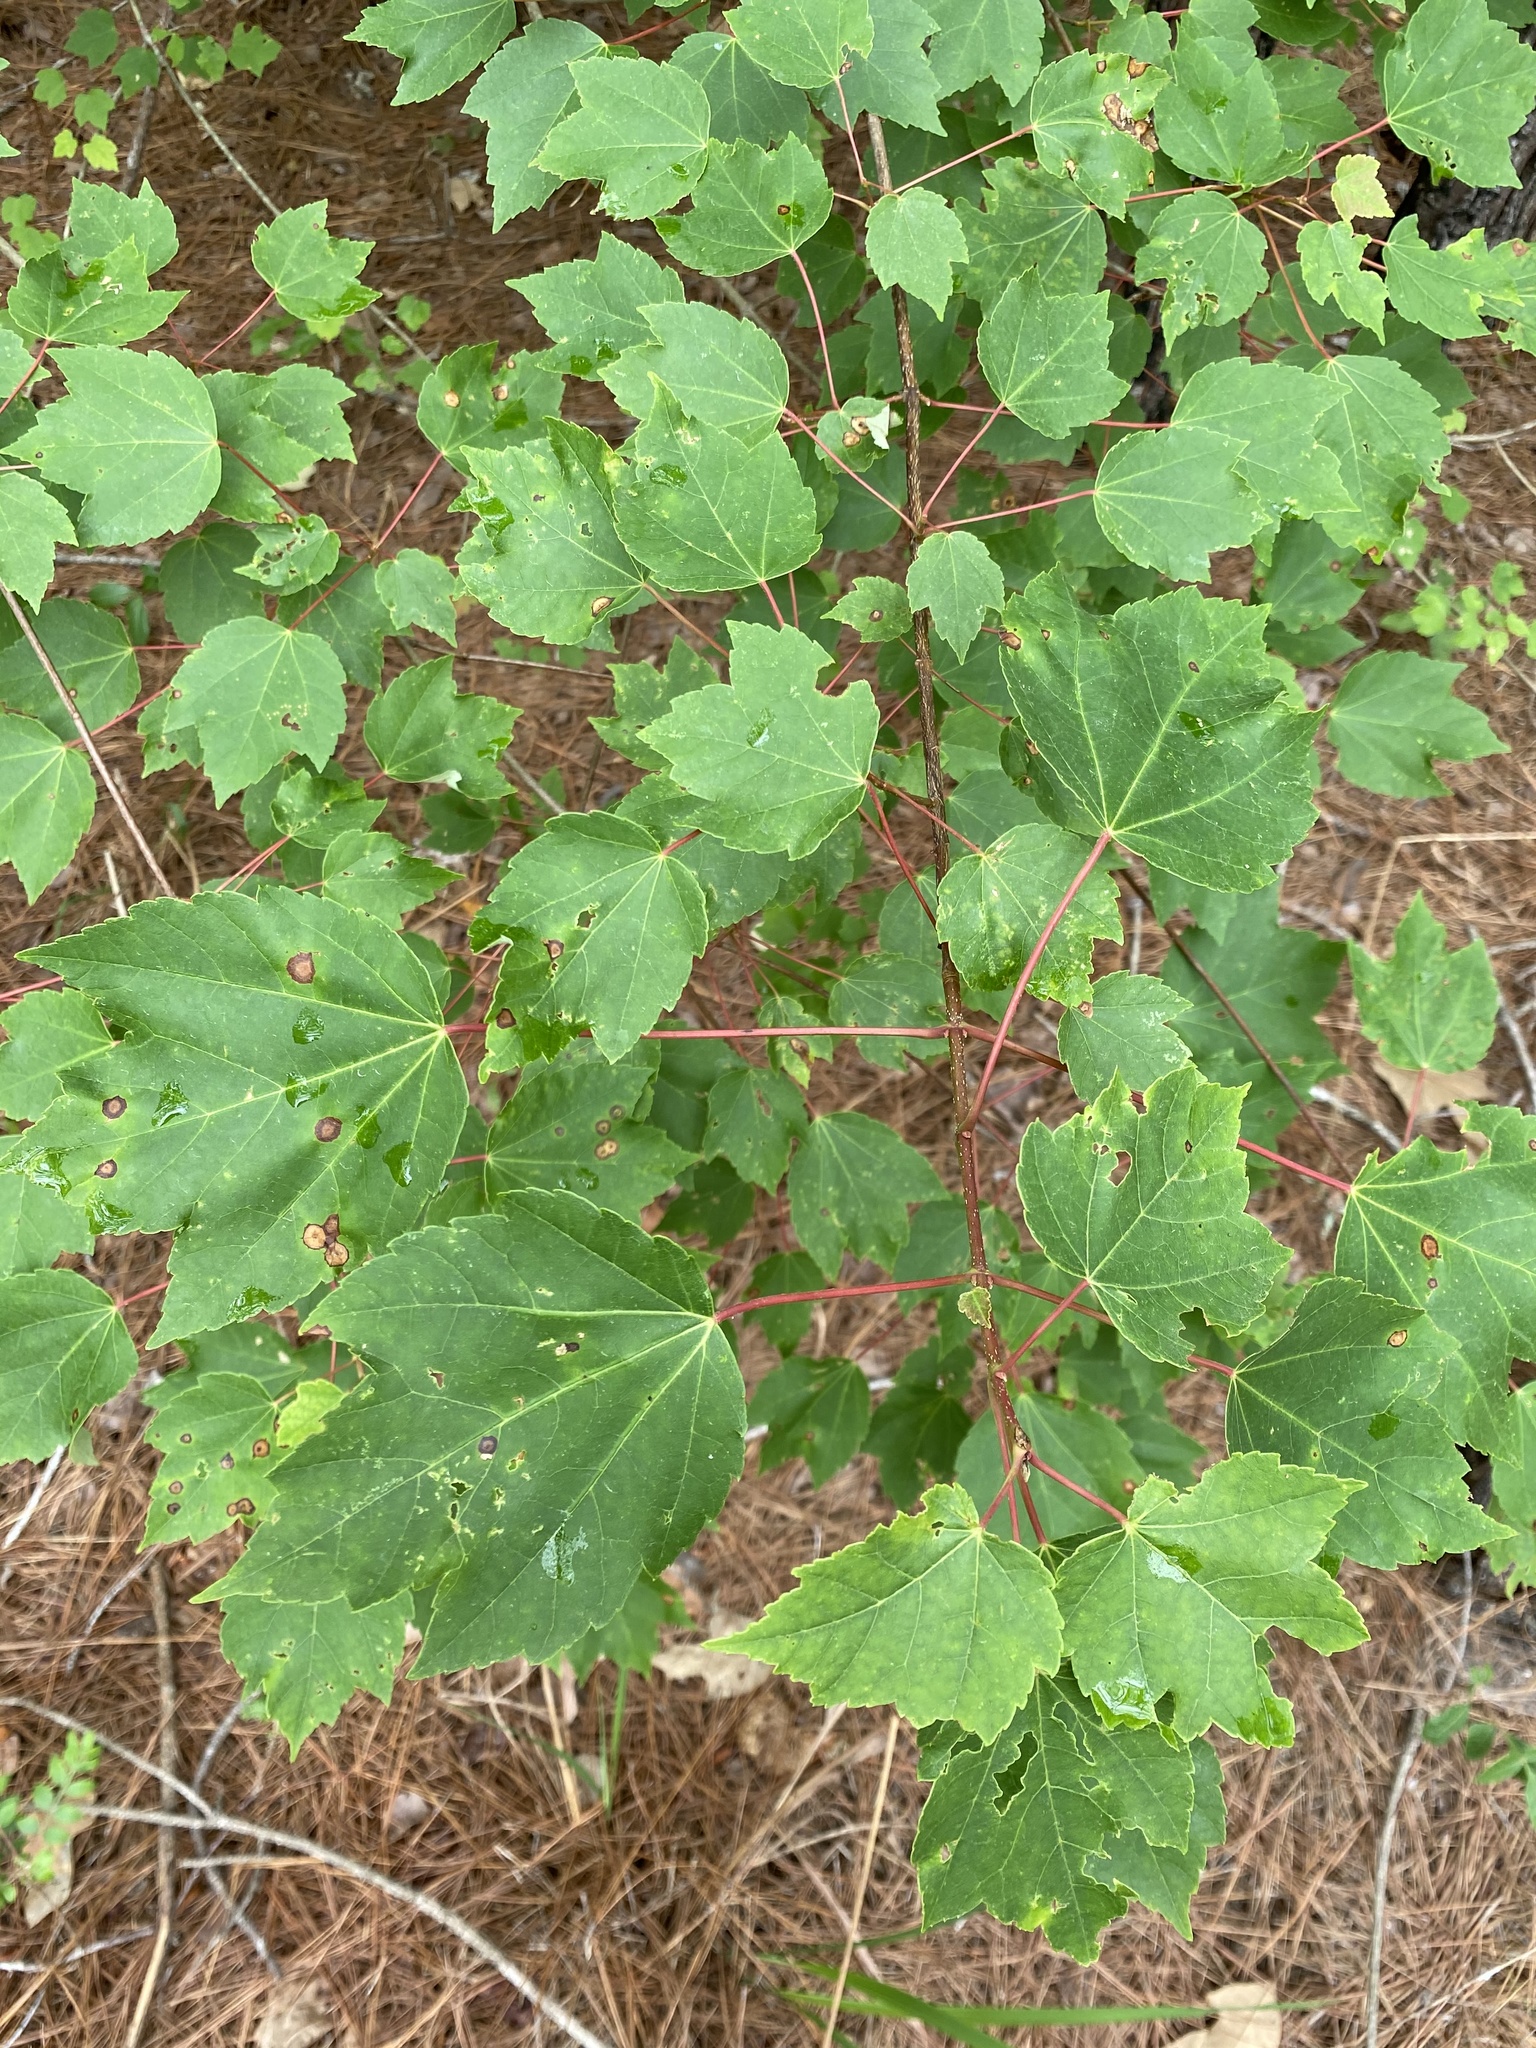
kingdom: Plantae
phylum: Tracheophyta
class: Magnoliopsida
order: Sapindales
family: Sapindaceae
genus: Acer
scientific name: Acer rubrum
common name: Red maple
